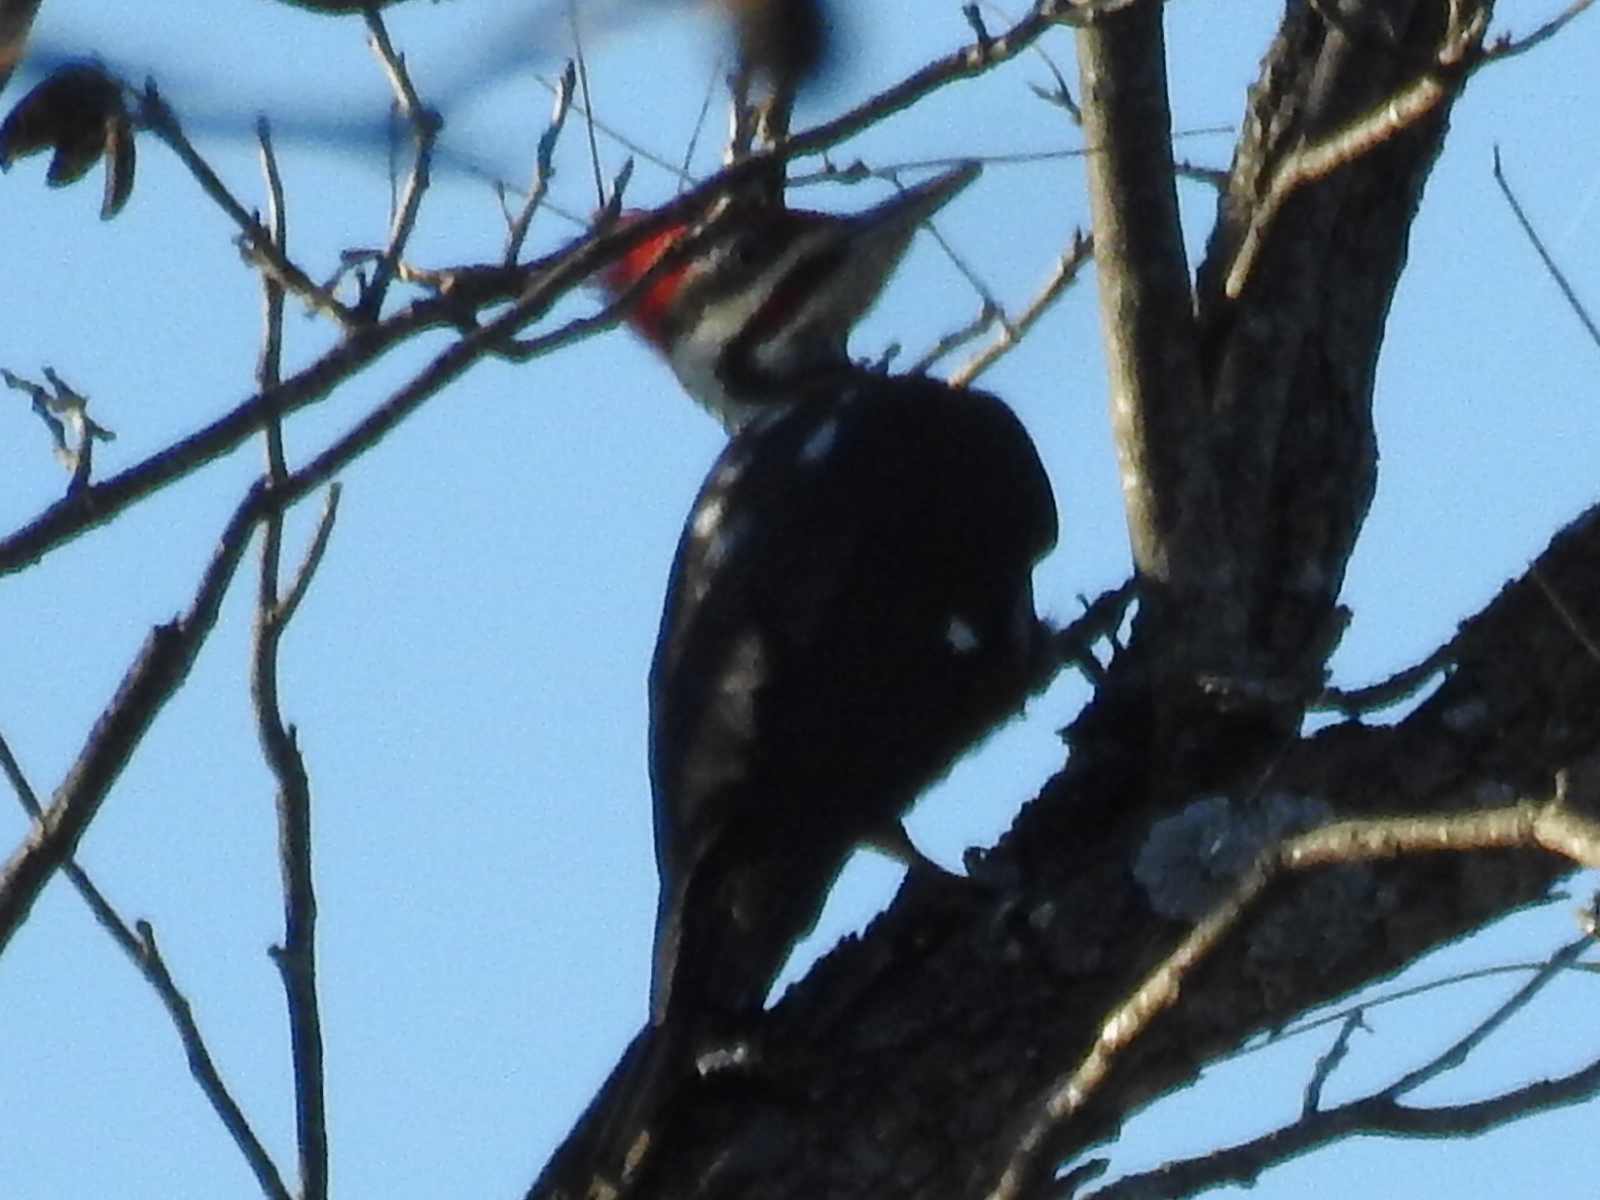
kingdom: Animalia
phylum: Chordata
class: Aves
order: Piciformes
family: Picidae
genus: Dryocopus
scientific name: Dryocopus pileatus
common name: Pileated woodpecker
